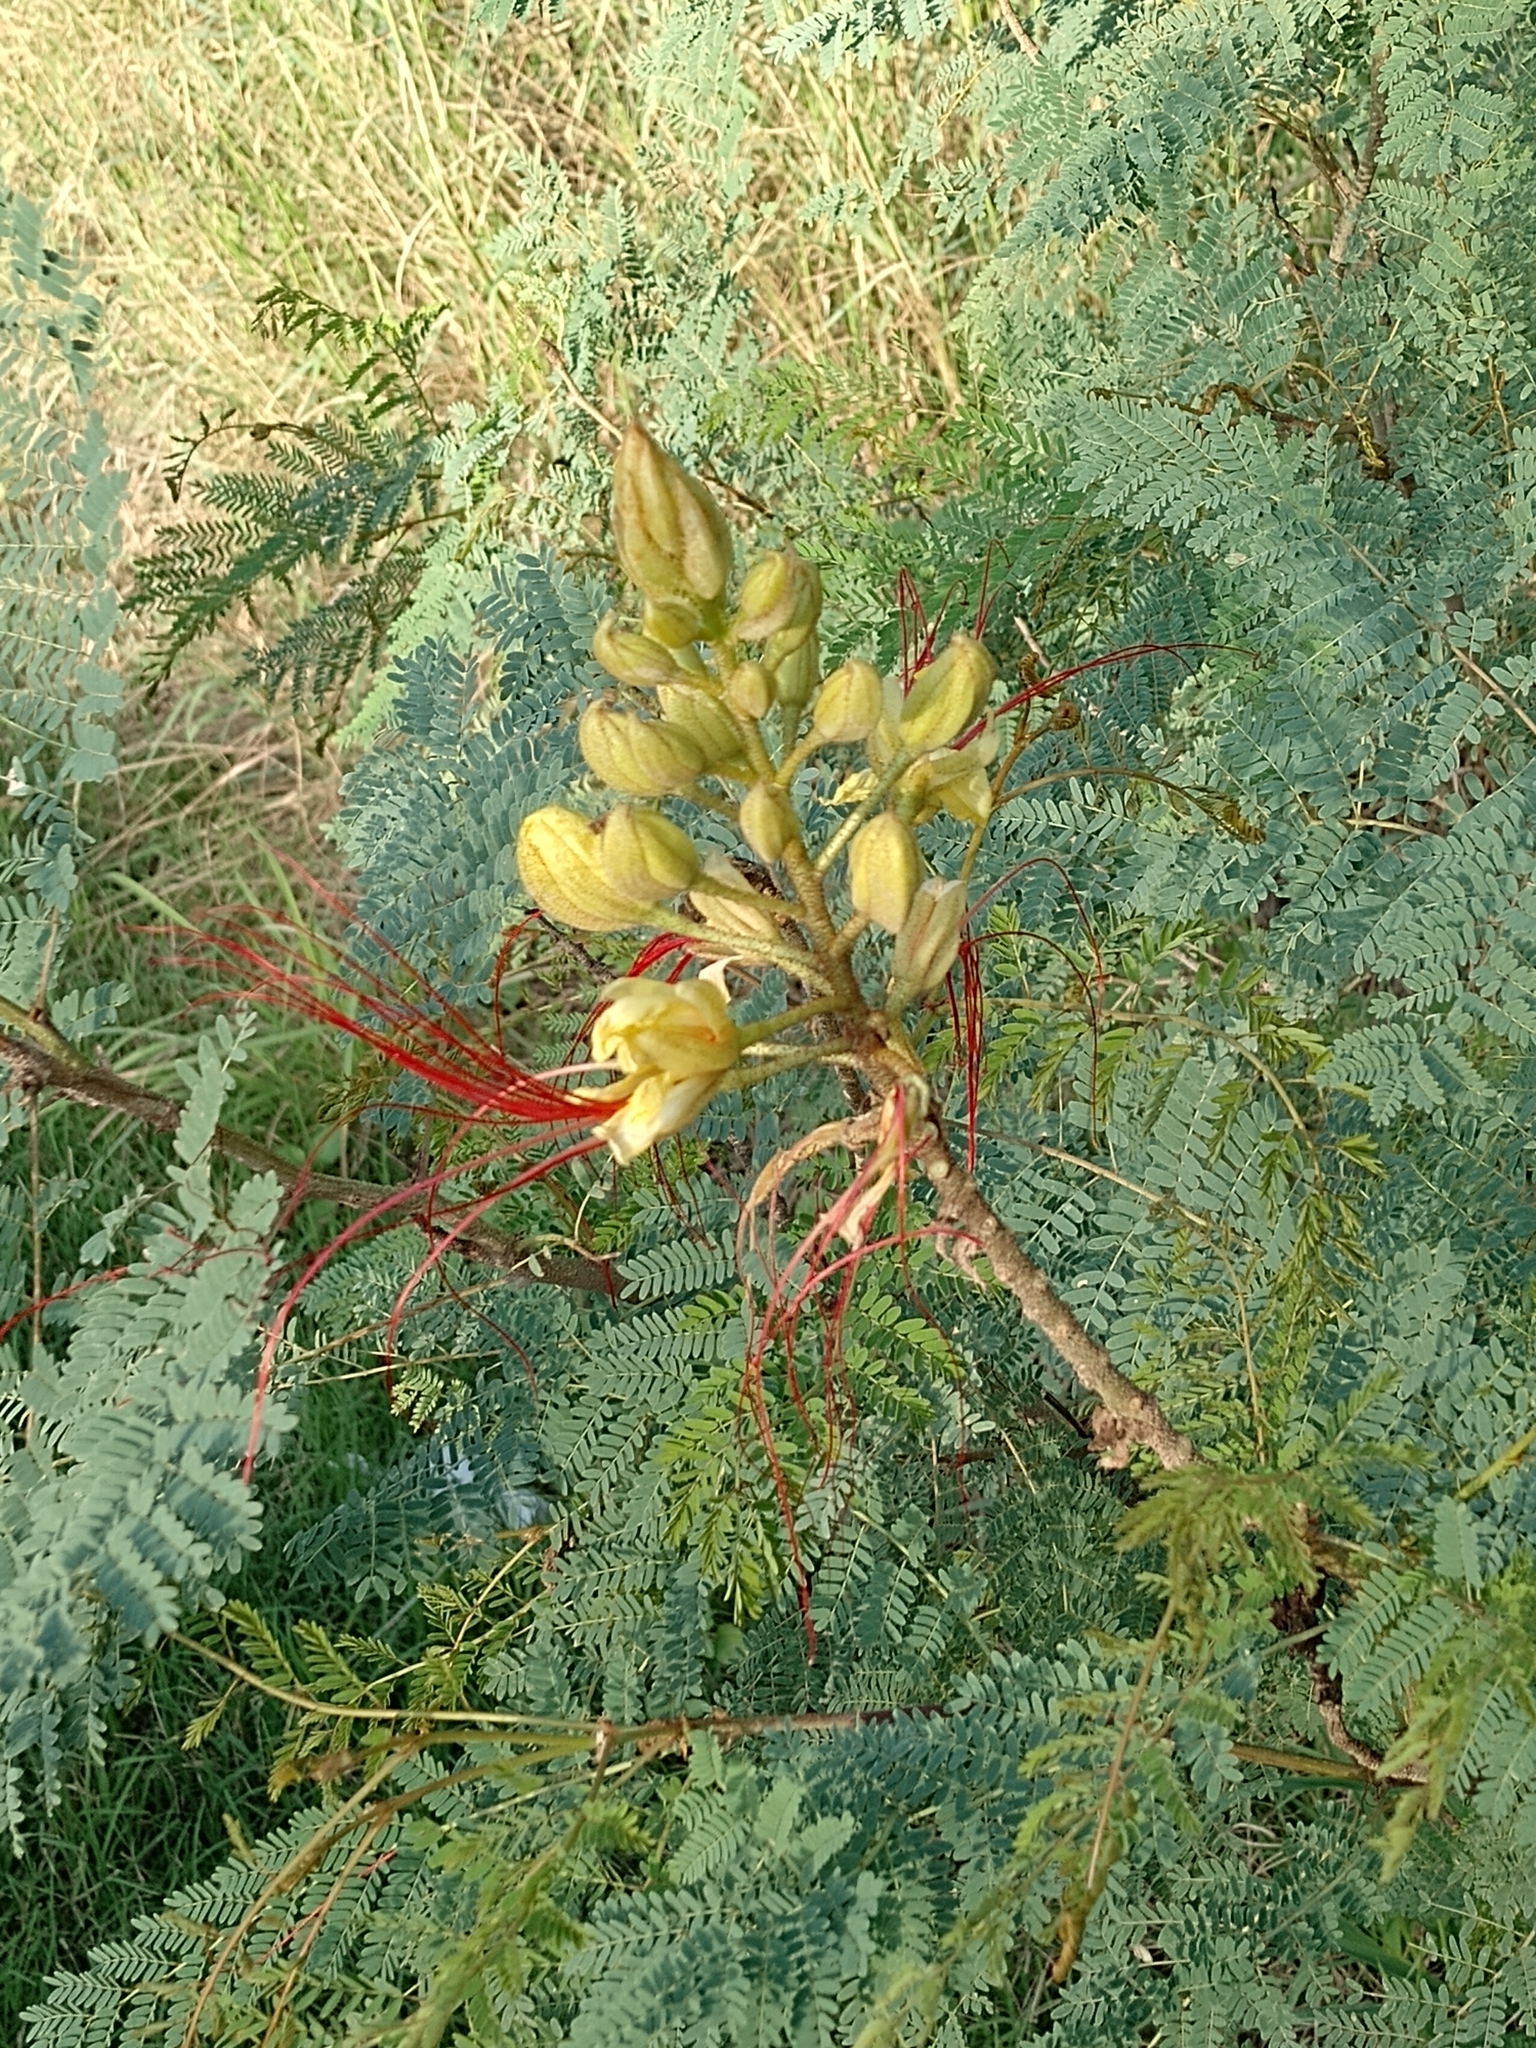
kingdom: Plantae
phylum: Tracheophyta
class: Magnoliopsida
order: Fabales
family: Fabaceae
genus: Erythrostemon
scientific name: Erythrostemon gilliesii
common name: Bird-of-paradise shrub
